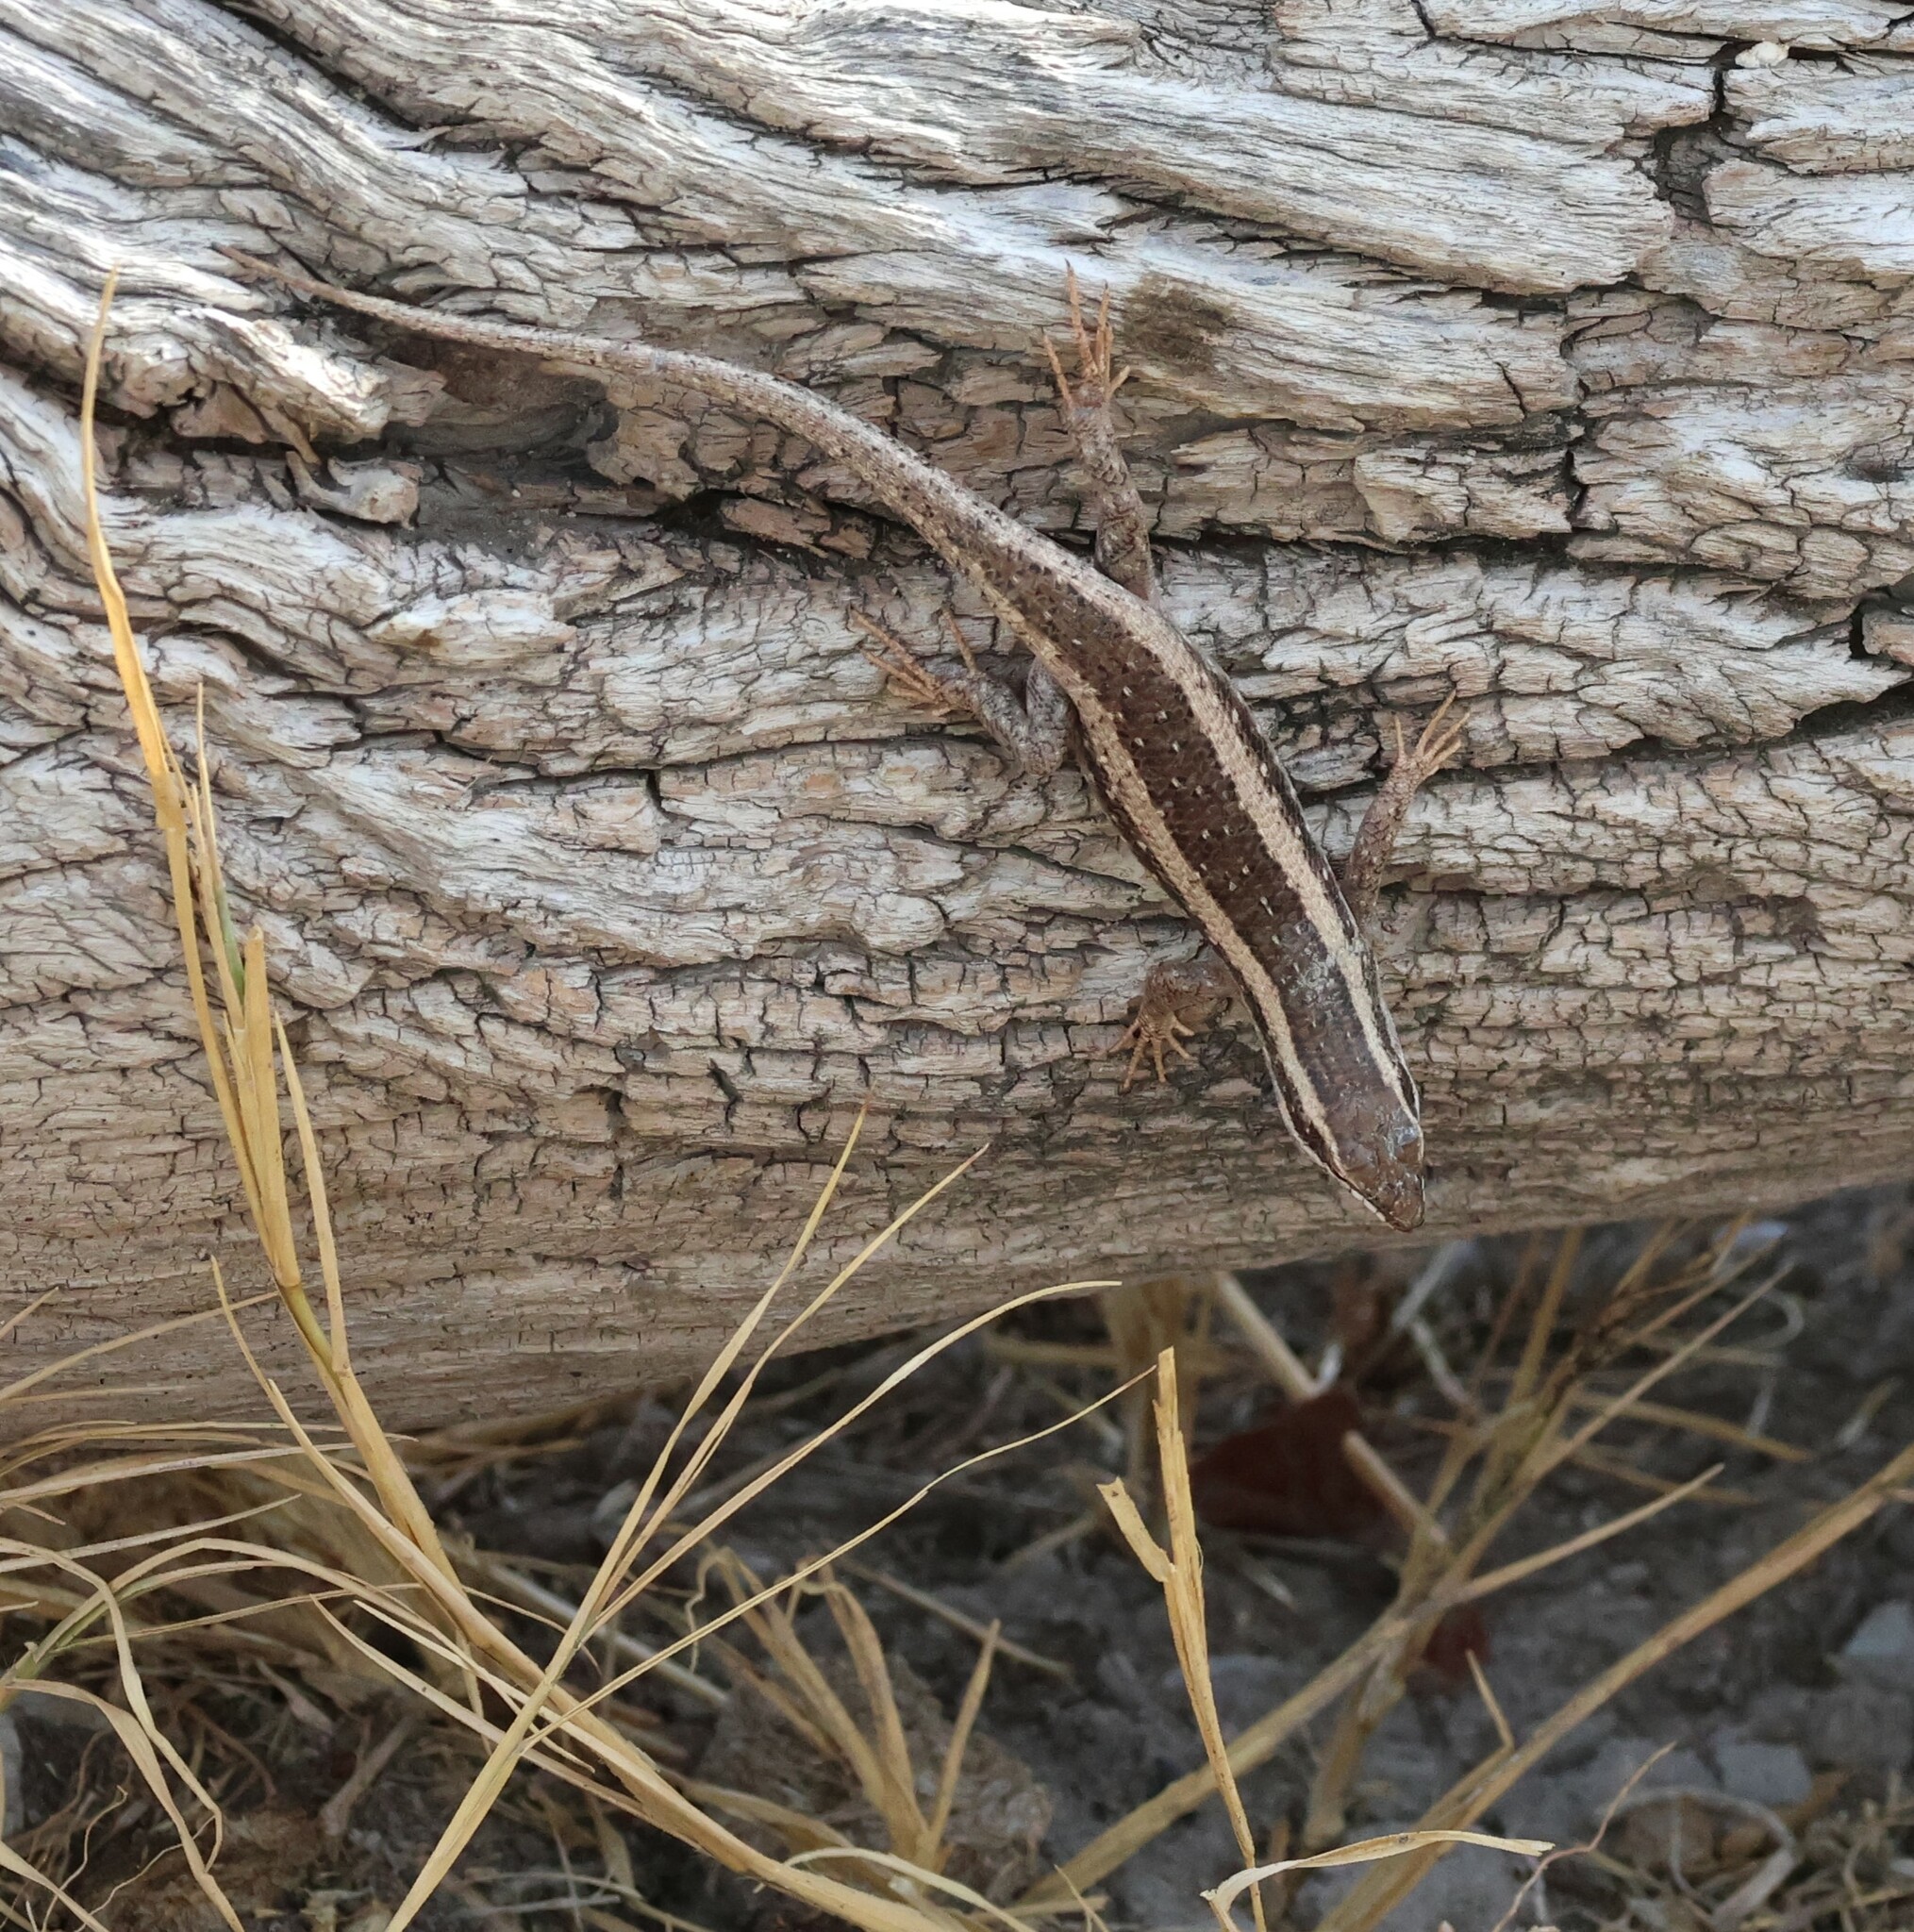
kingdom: Animalia
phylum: Chordata
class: Squamata
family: Scincidae
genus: Trachylepis
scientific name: Trachylepis spilogaster
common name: Kalahari tree skink
